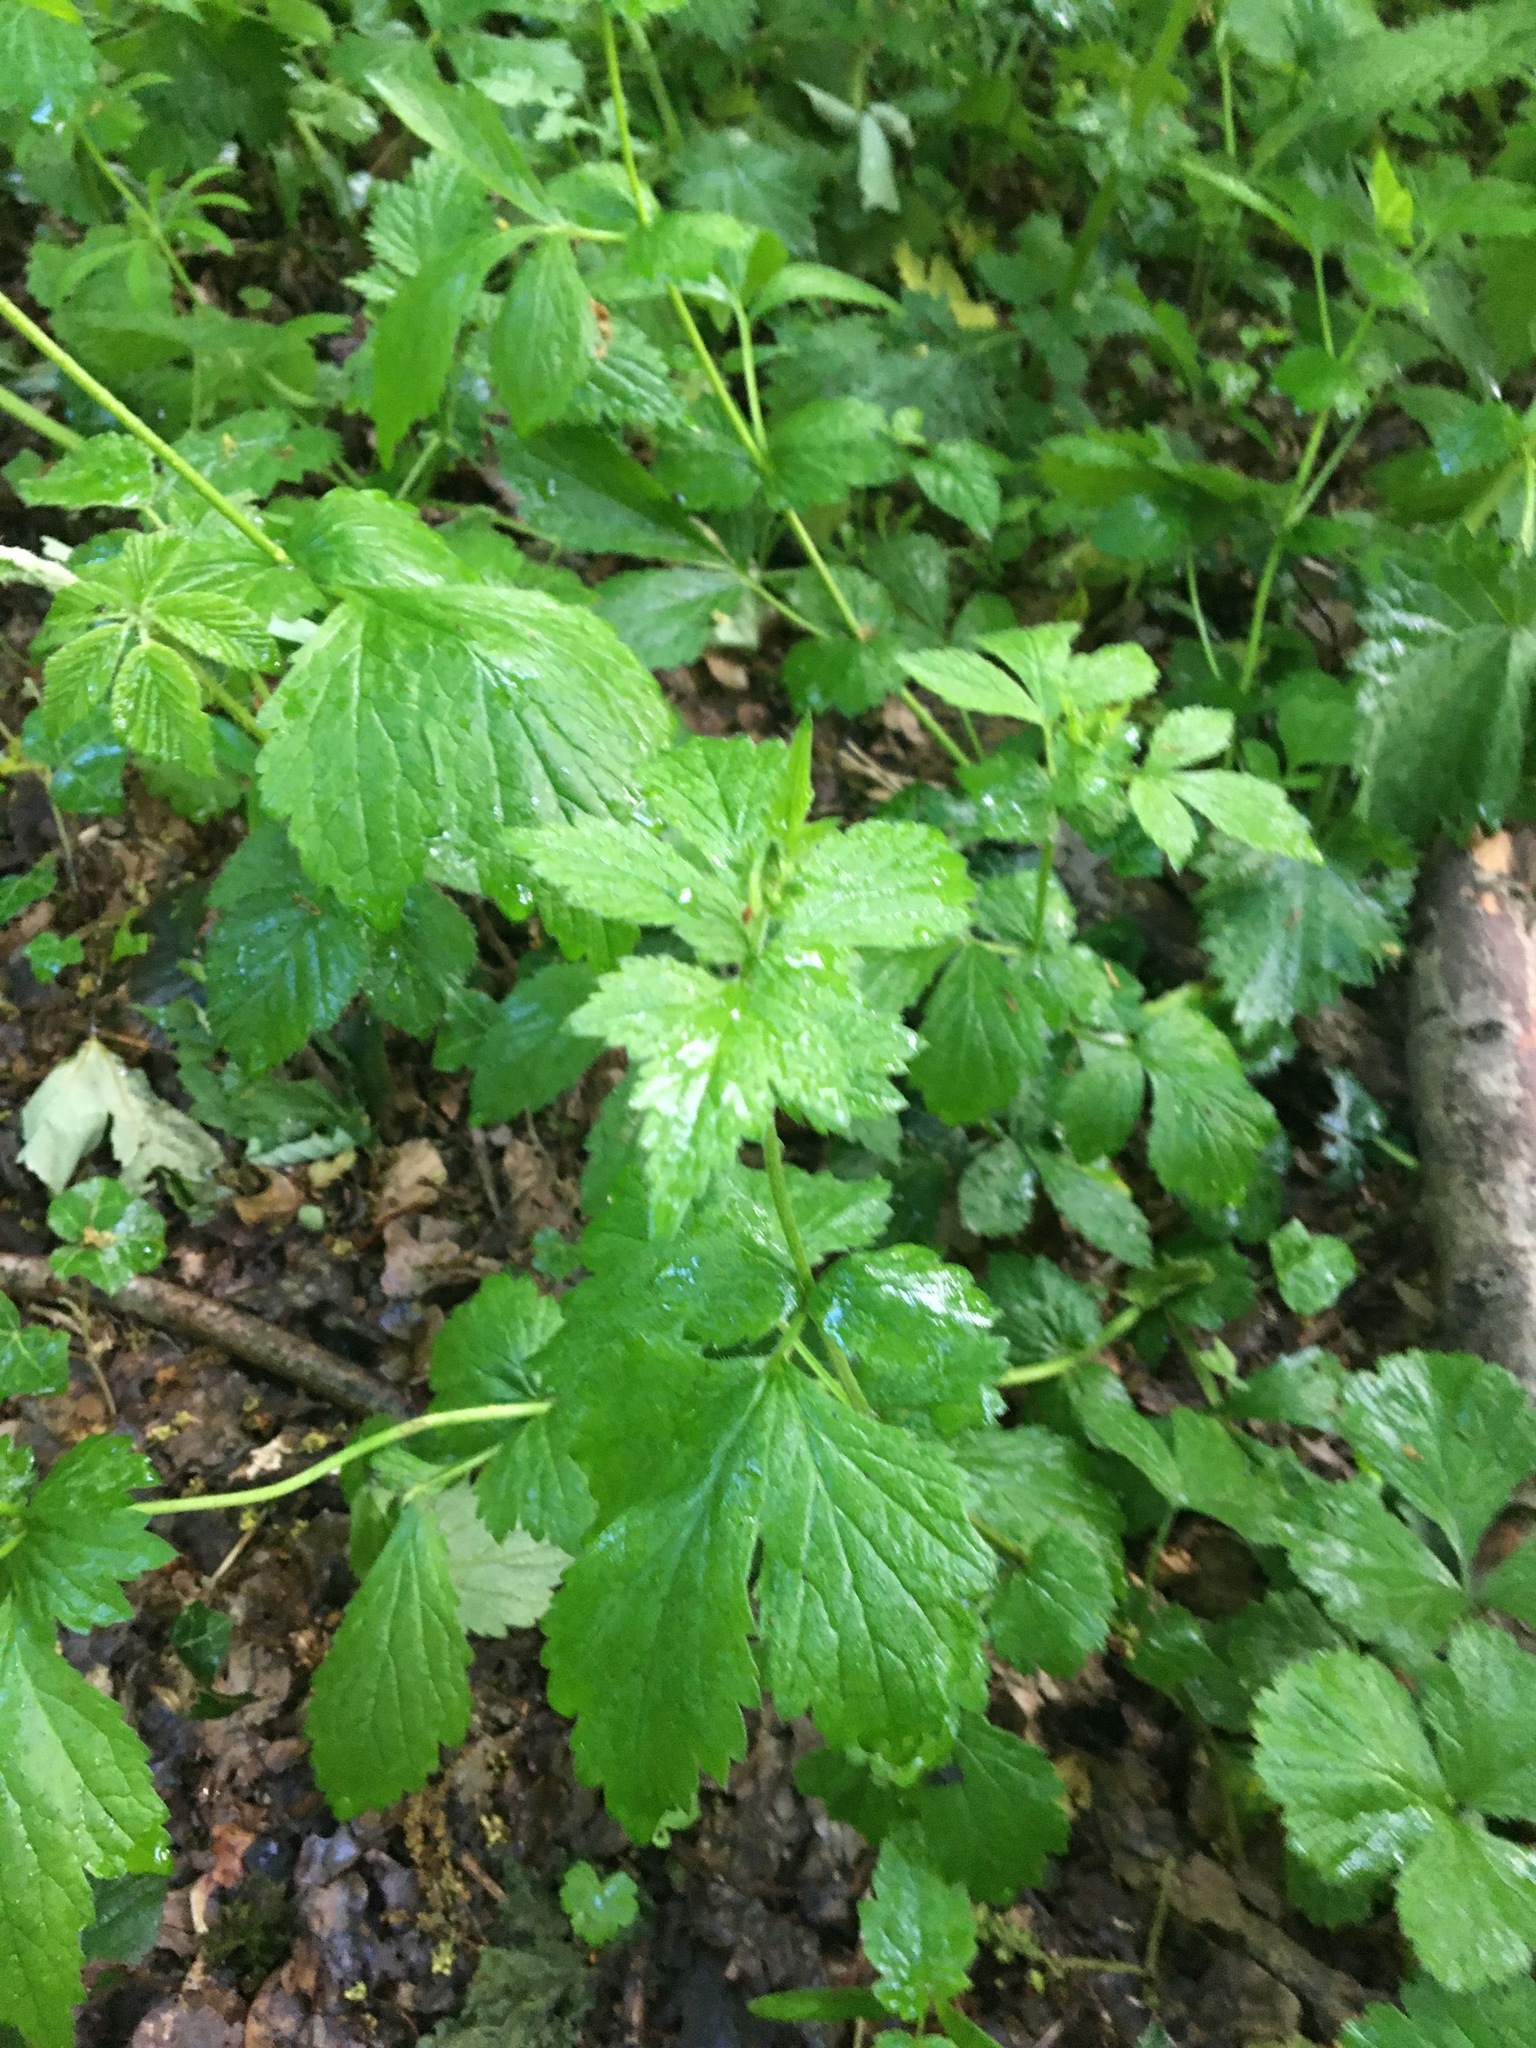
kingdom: Plantae
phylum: Tracheophyta
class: Magnoliopsida
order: Rosales
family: Rosaceae
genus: Geum
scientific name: Geum urbanum
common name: Wood avens
